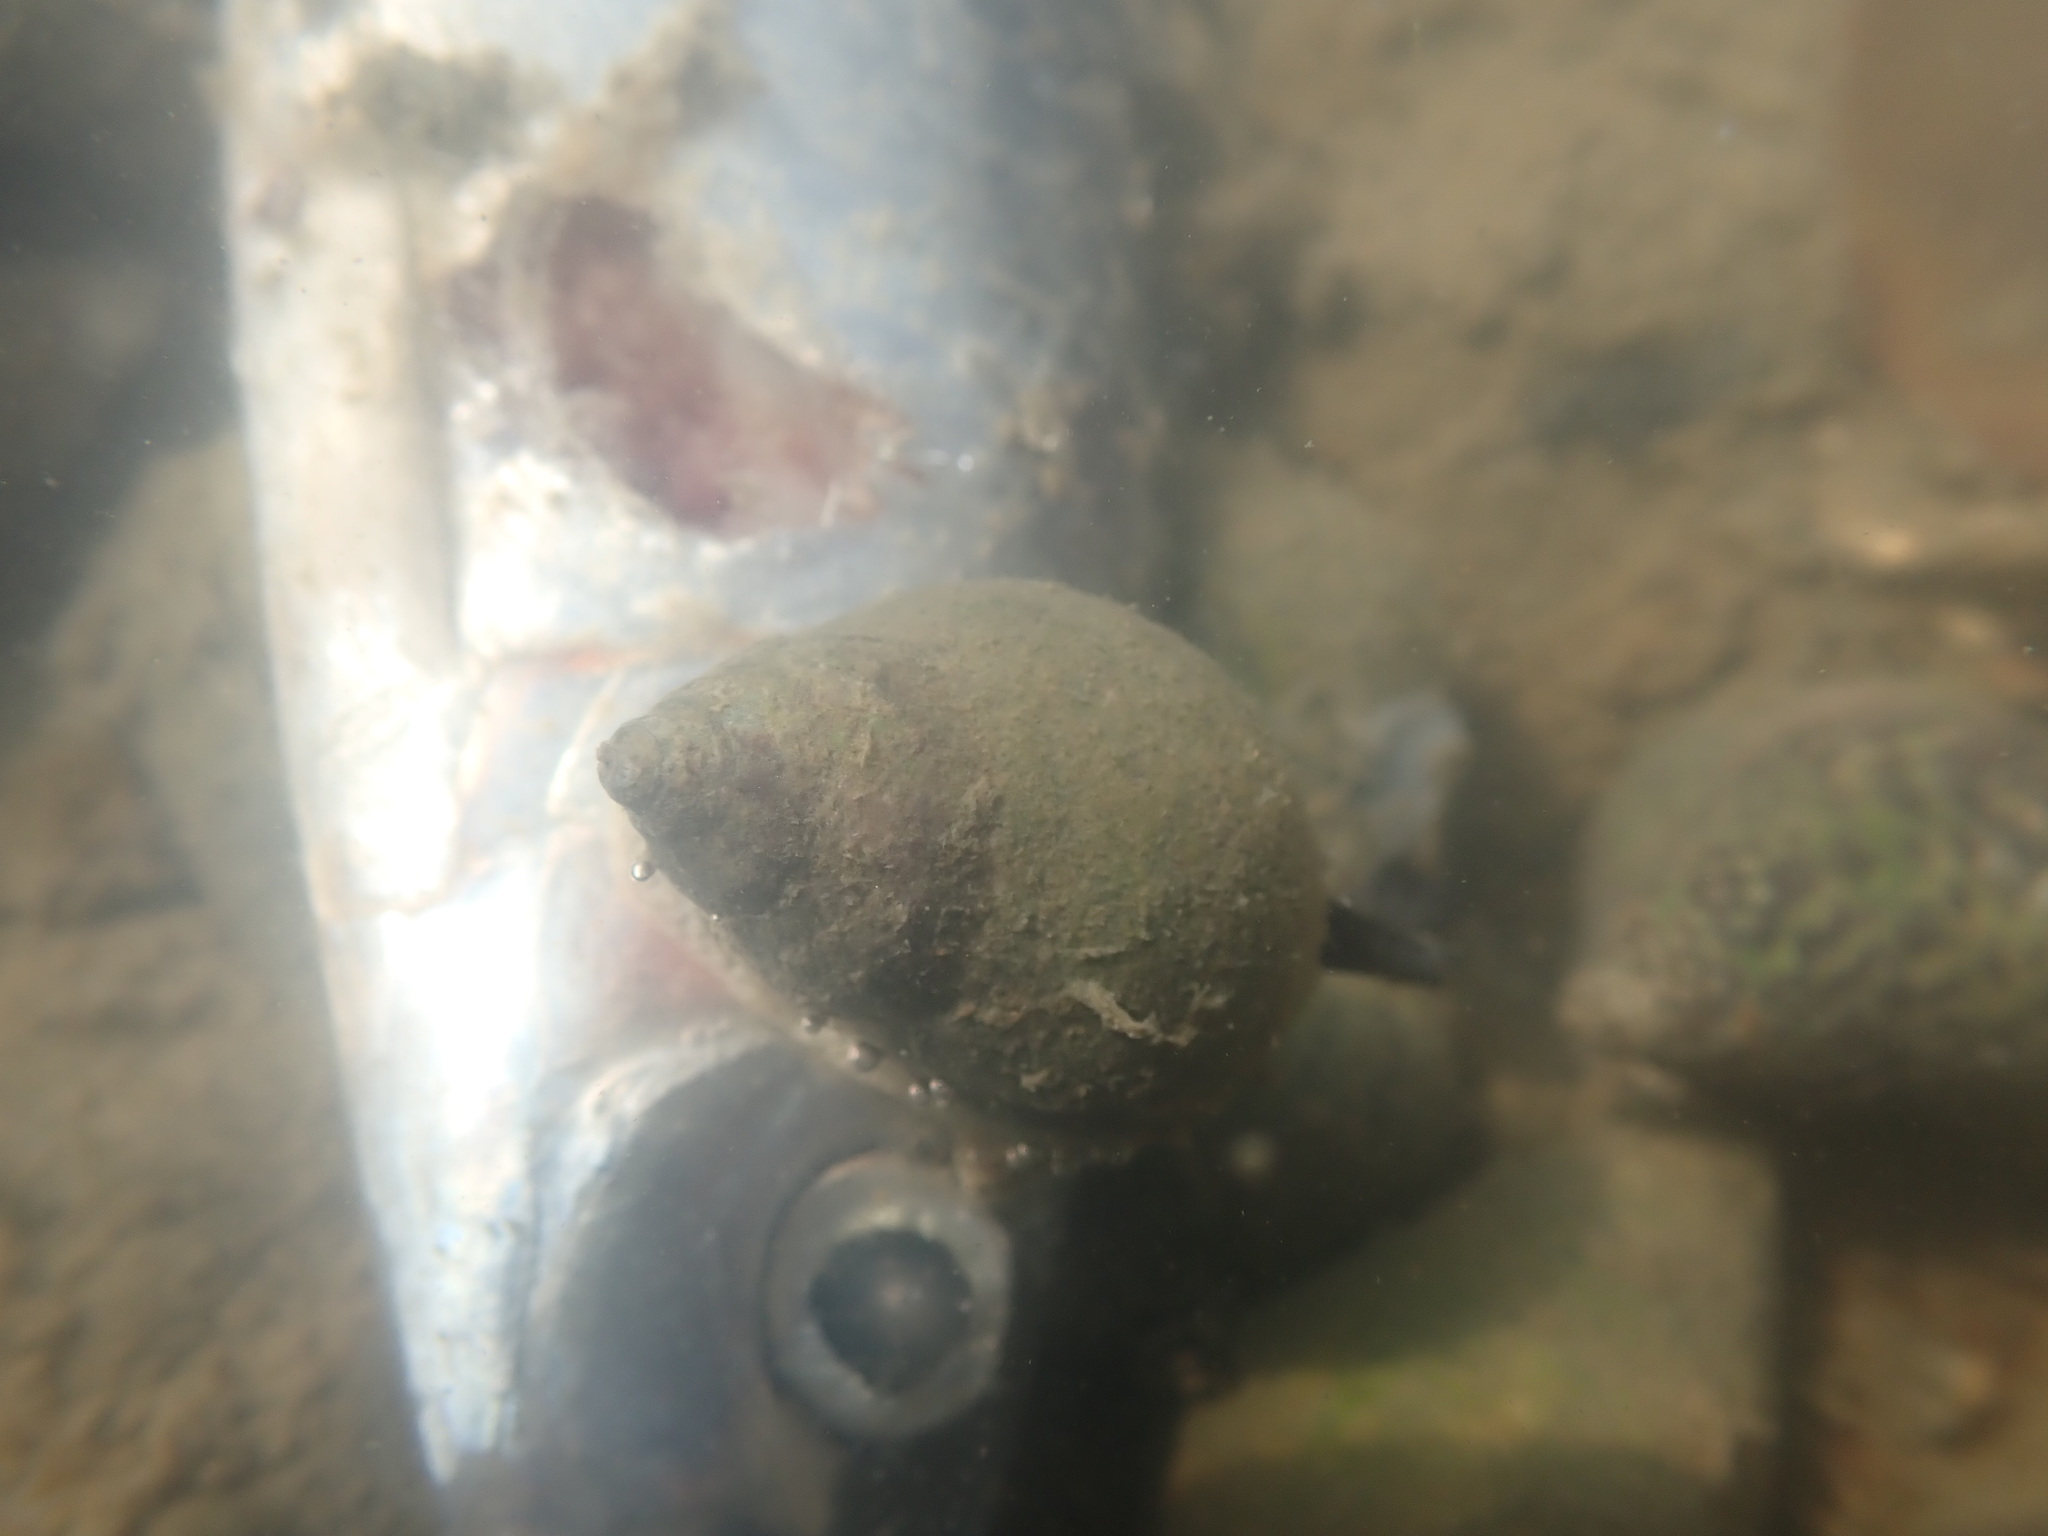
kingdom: Animalia
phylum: Mollusca
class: Gastropoda
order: Neogastropoda
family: Cominellidae
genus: Cominella
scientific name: Cominella maculosa
